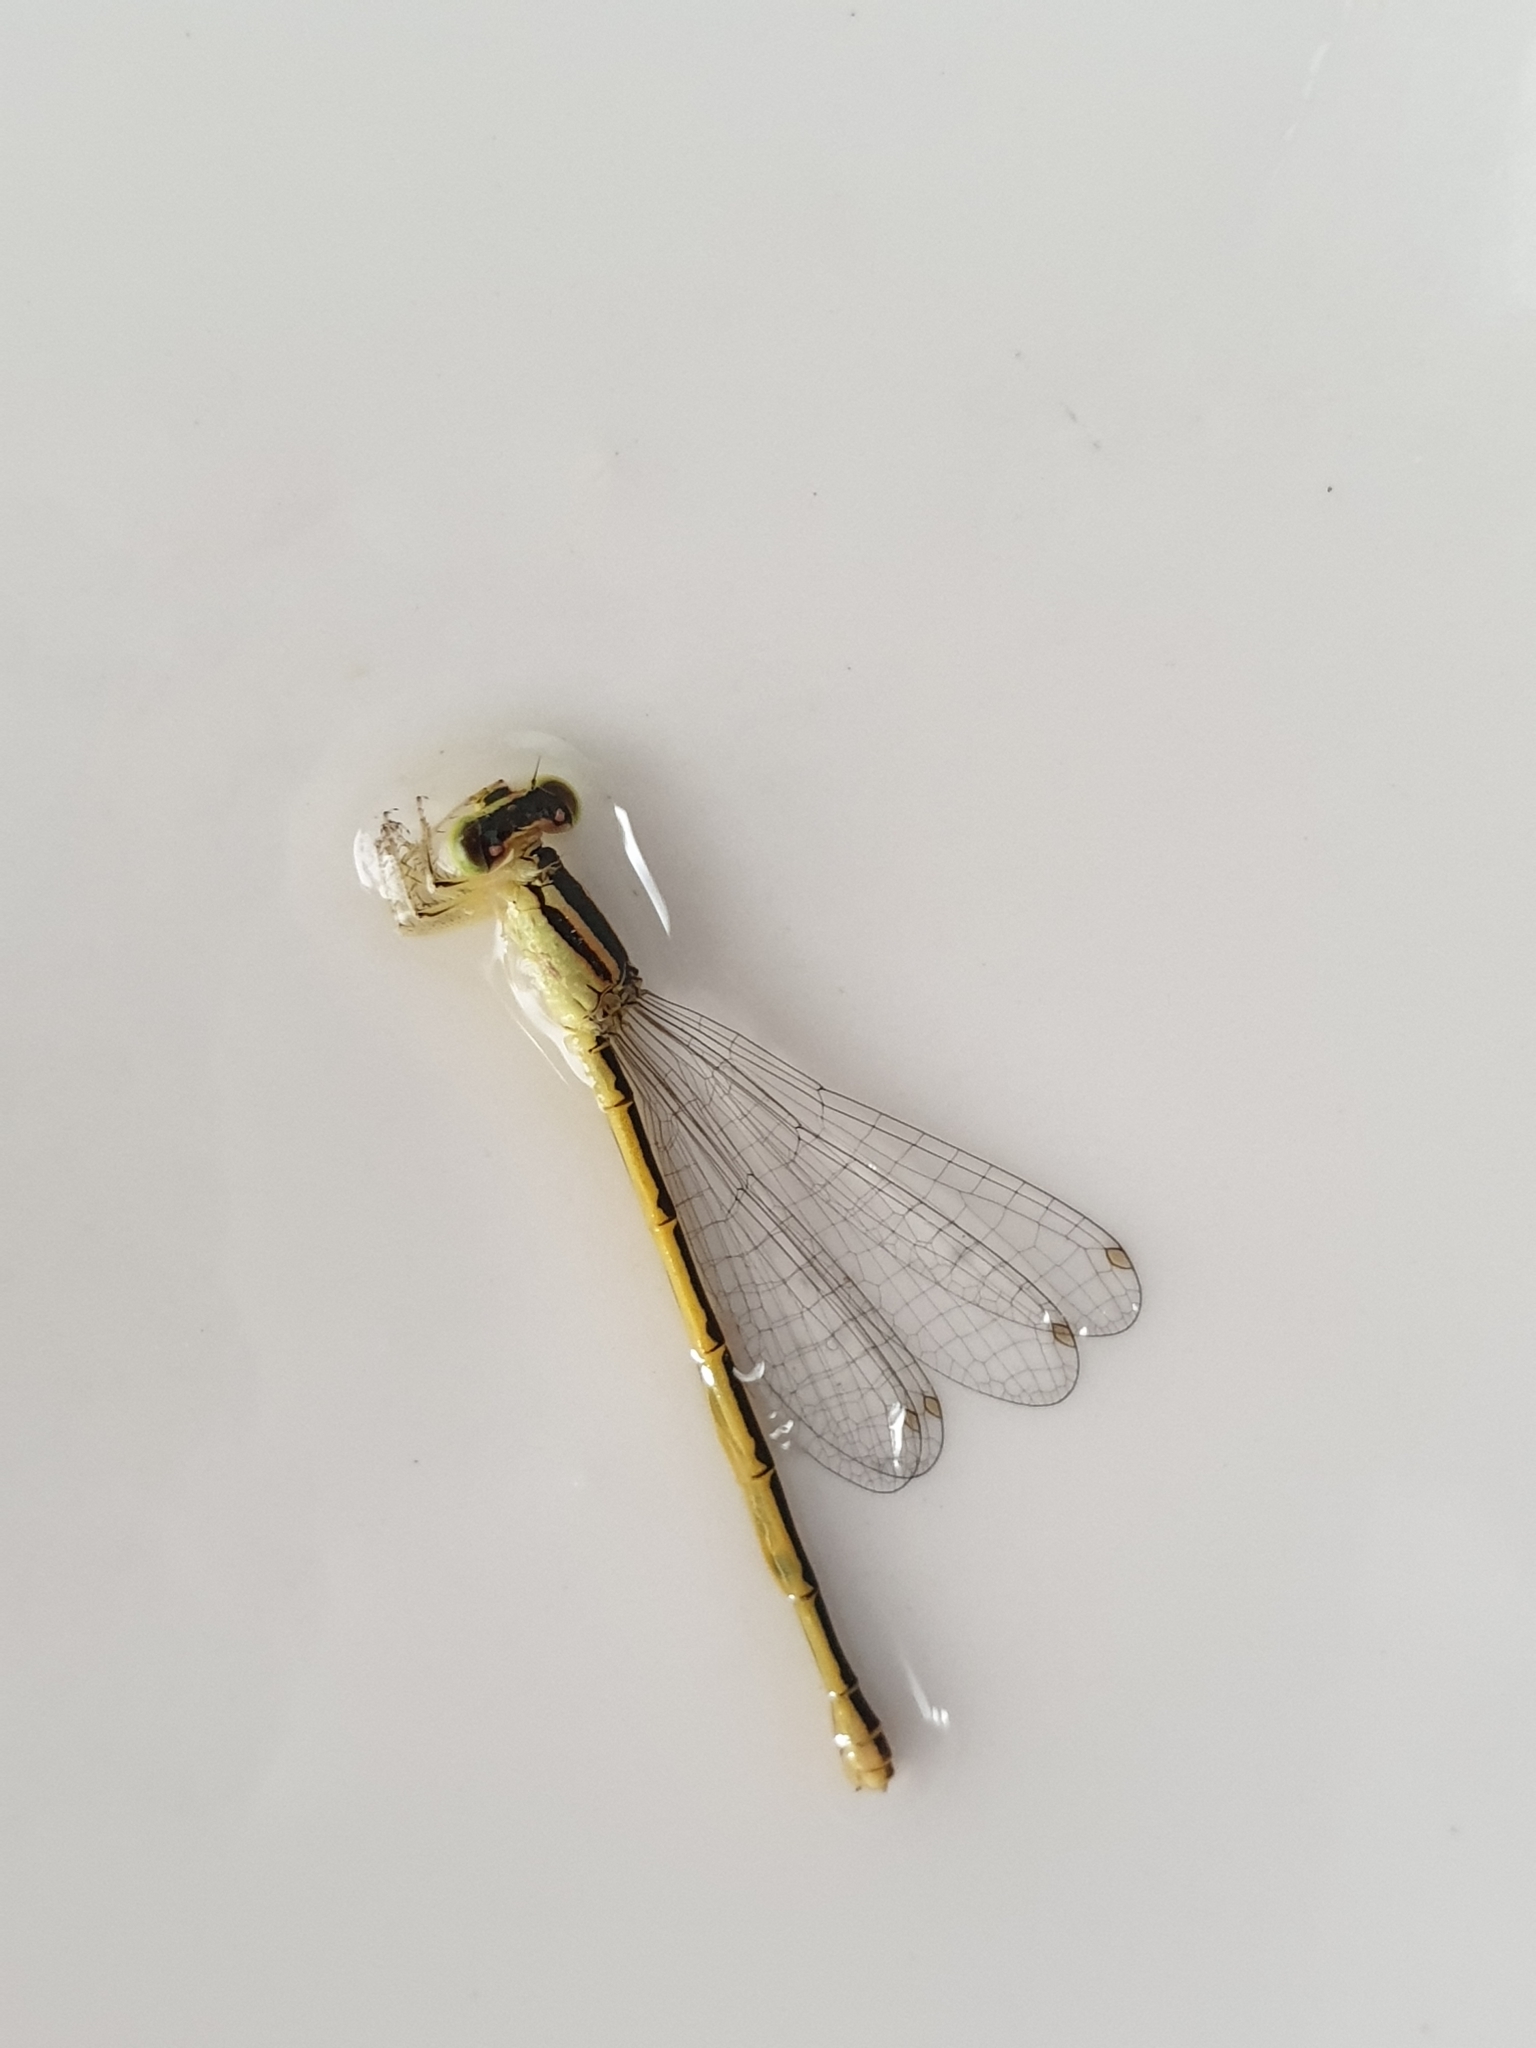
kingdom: Animalia
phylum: Arthropoda
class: Insecta
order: Odonata
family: Coenagrionidae
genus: Ischnura
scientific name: Ischnura rubilio
